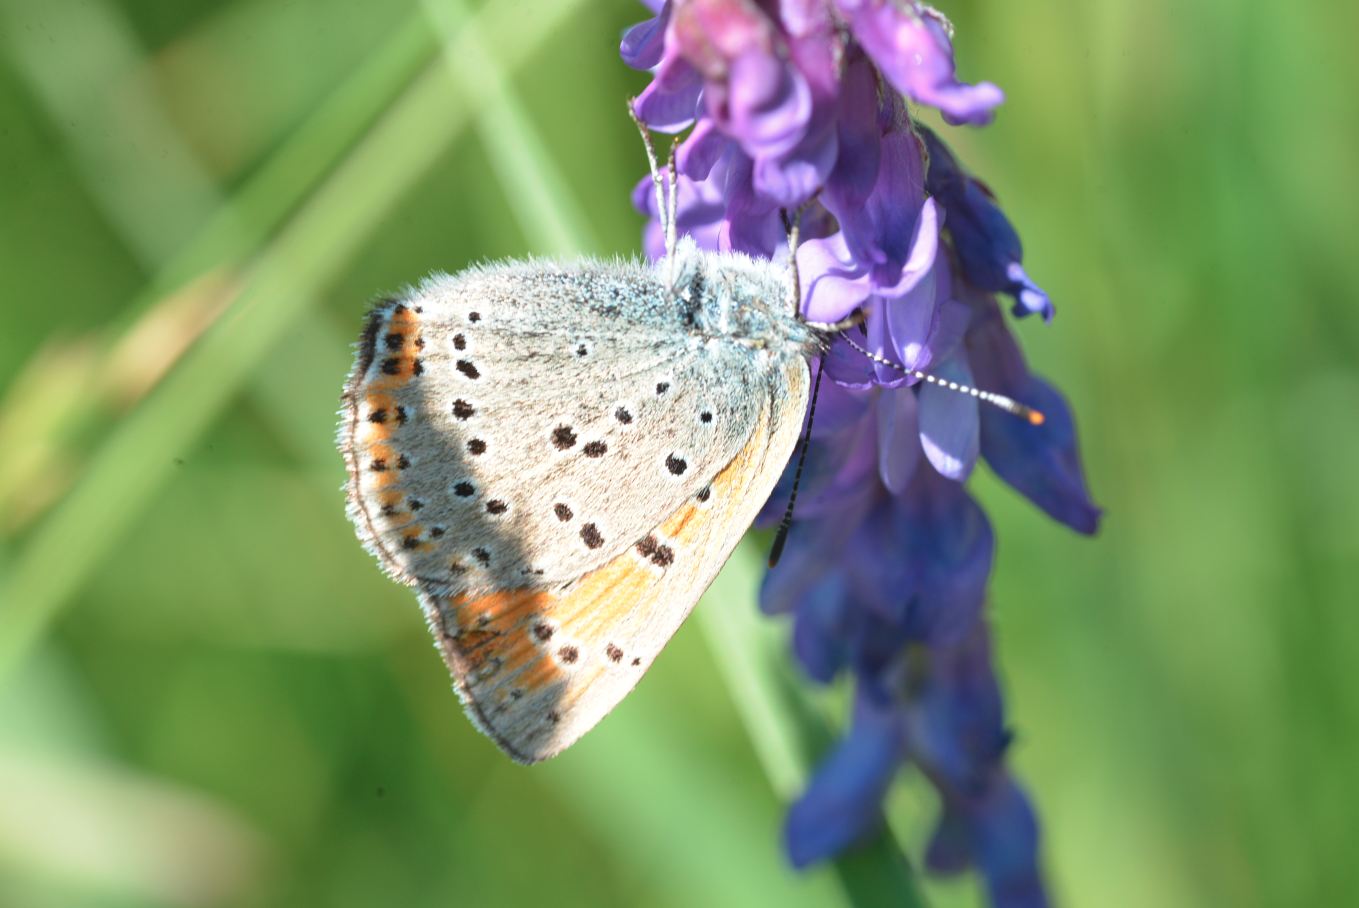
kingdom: Animalia
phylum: Arthropoda
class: Insecta
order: Lepidoptera
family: Lycaenidae
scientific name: Lycaenidae
